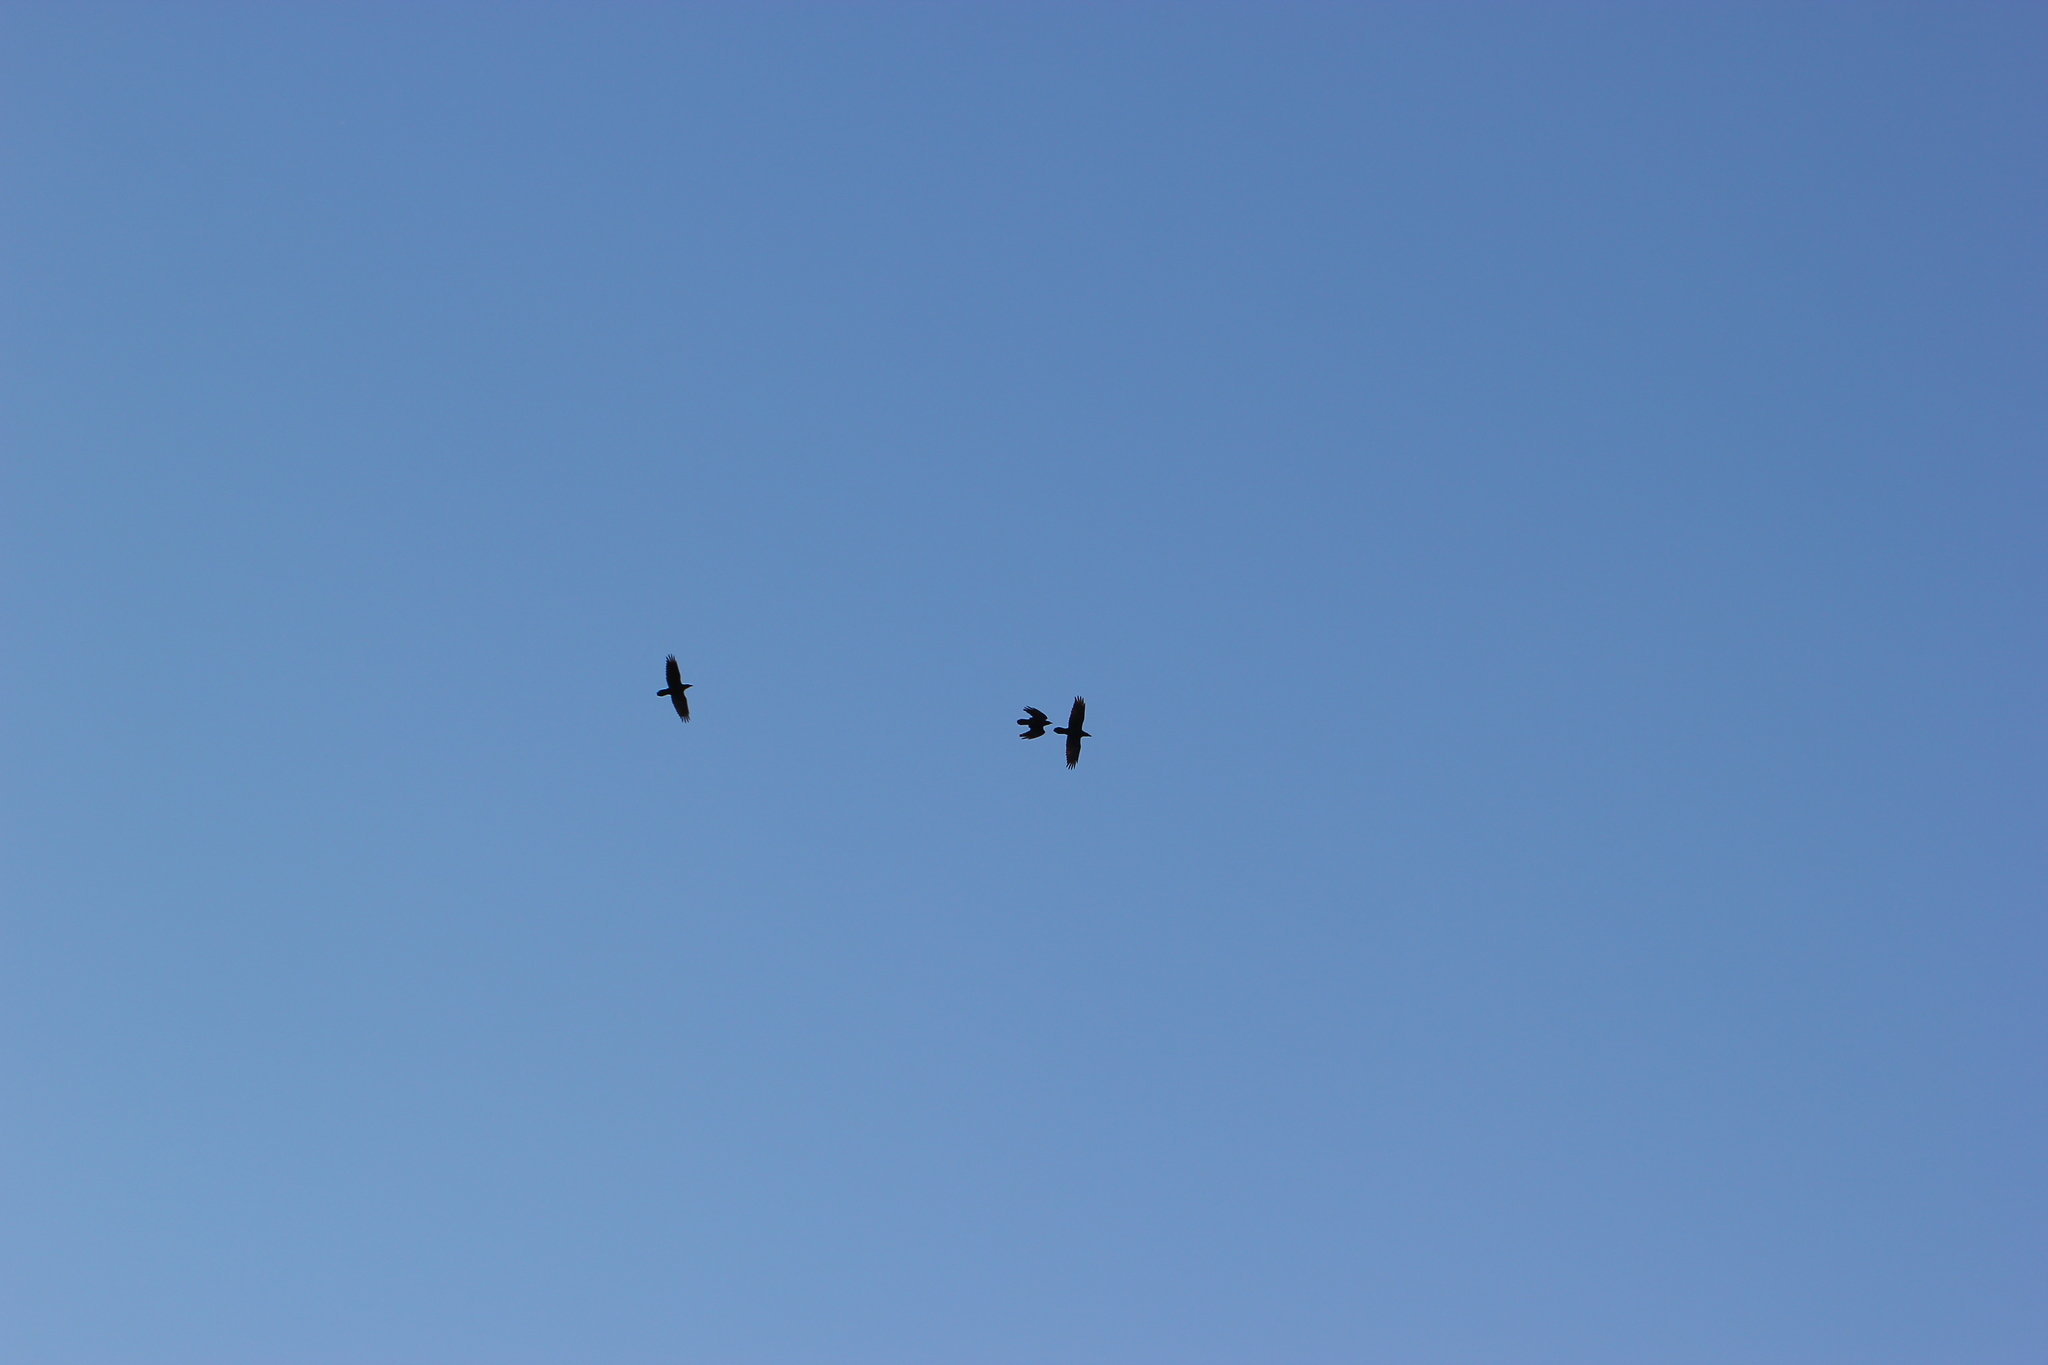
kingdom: Animalia
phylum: Chordata
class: Aves
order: Passeriformes
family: Corvidae
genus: Corvus
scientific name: Corvus corax
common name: Common raven
